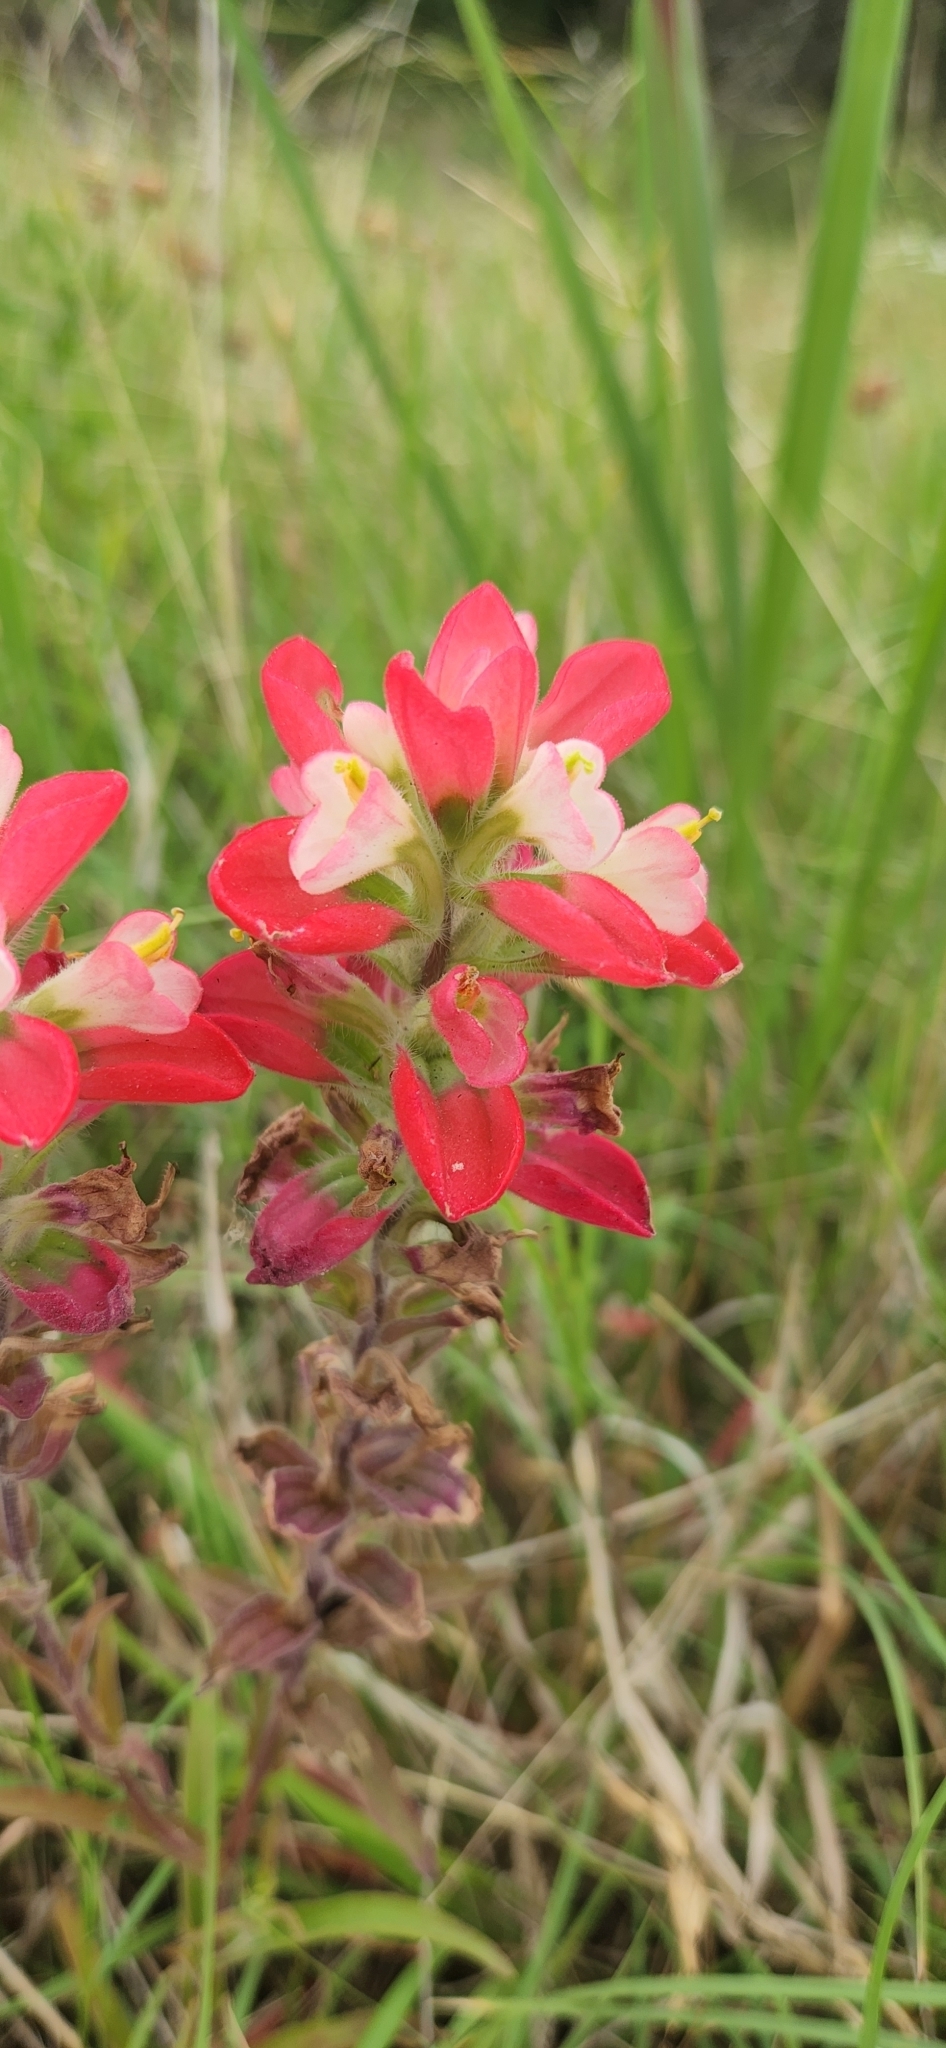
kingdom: Plantae
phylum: Tracheophyta
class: Magnoliopsida
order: Lamiales
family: Orobanchaceae
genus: Castilleja
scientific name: Castilleja indivisa
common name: Texas paintbrush
